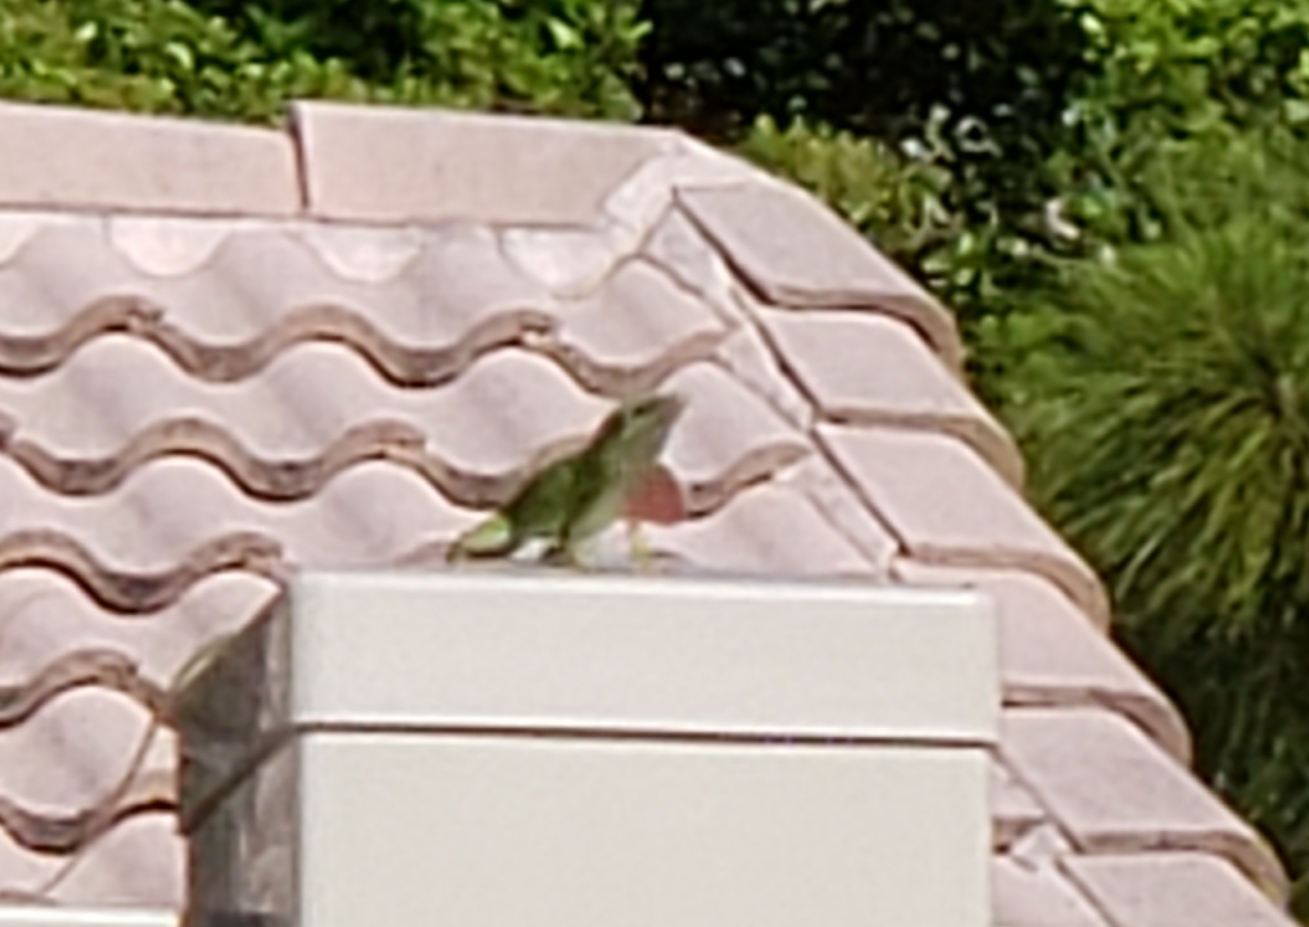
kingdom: Animalia
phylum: Chordata
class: Squamata
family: Dactyloidae
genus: Anolis
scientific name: Anolis carolinensis
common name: Green anole
